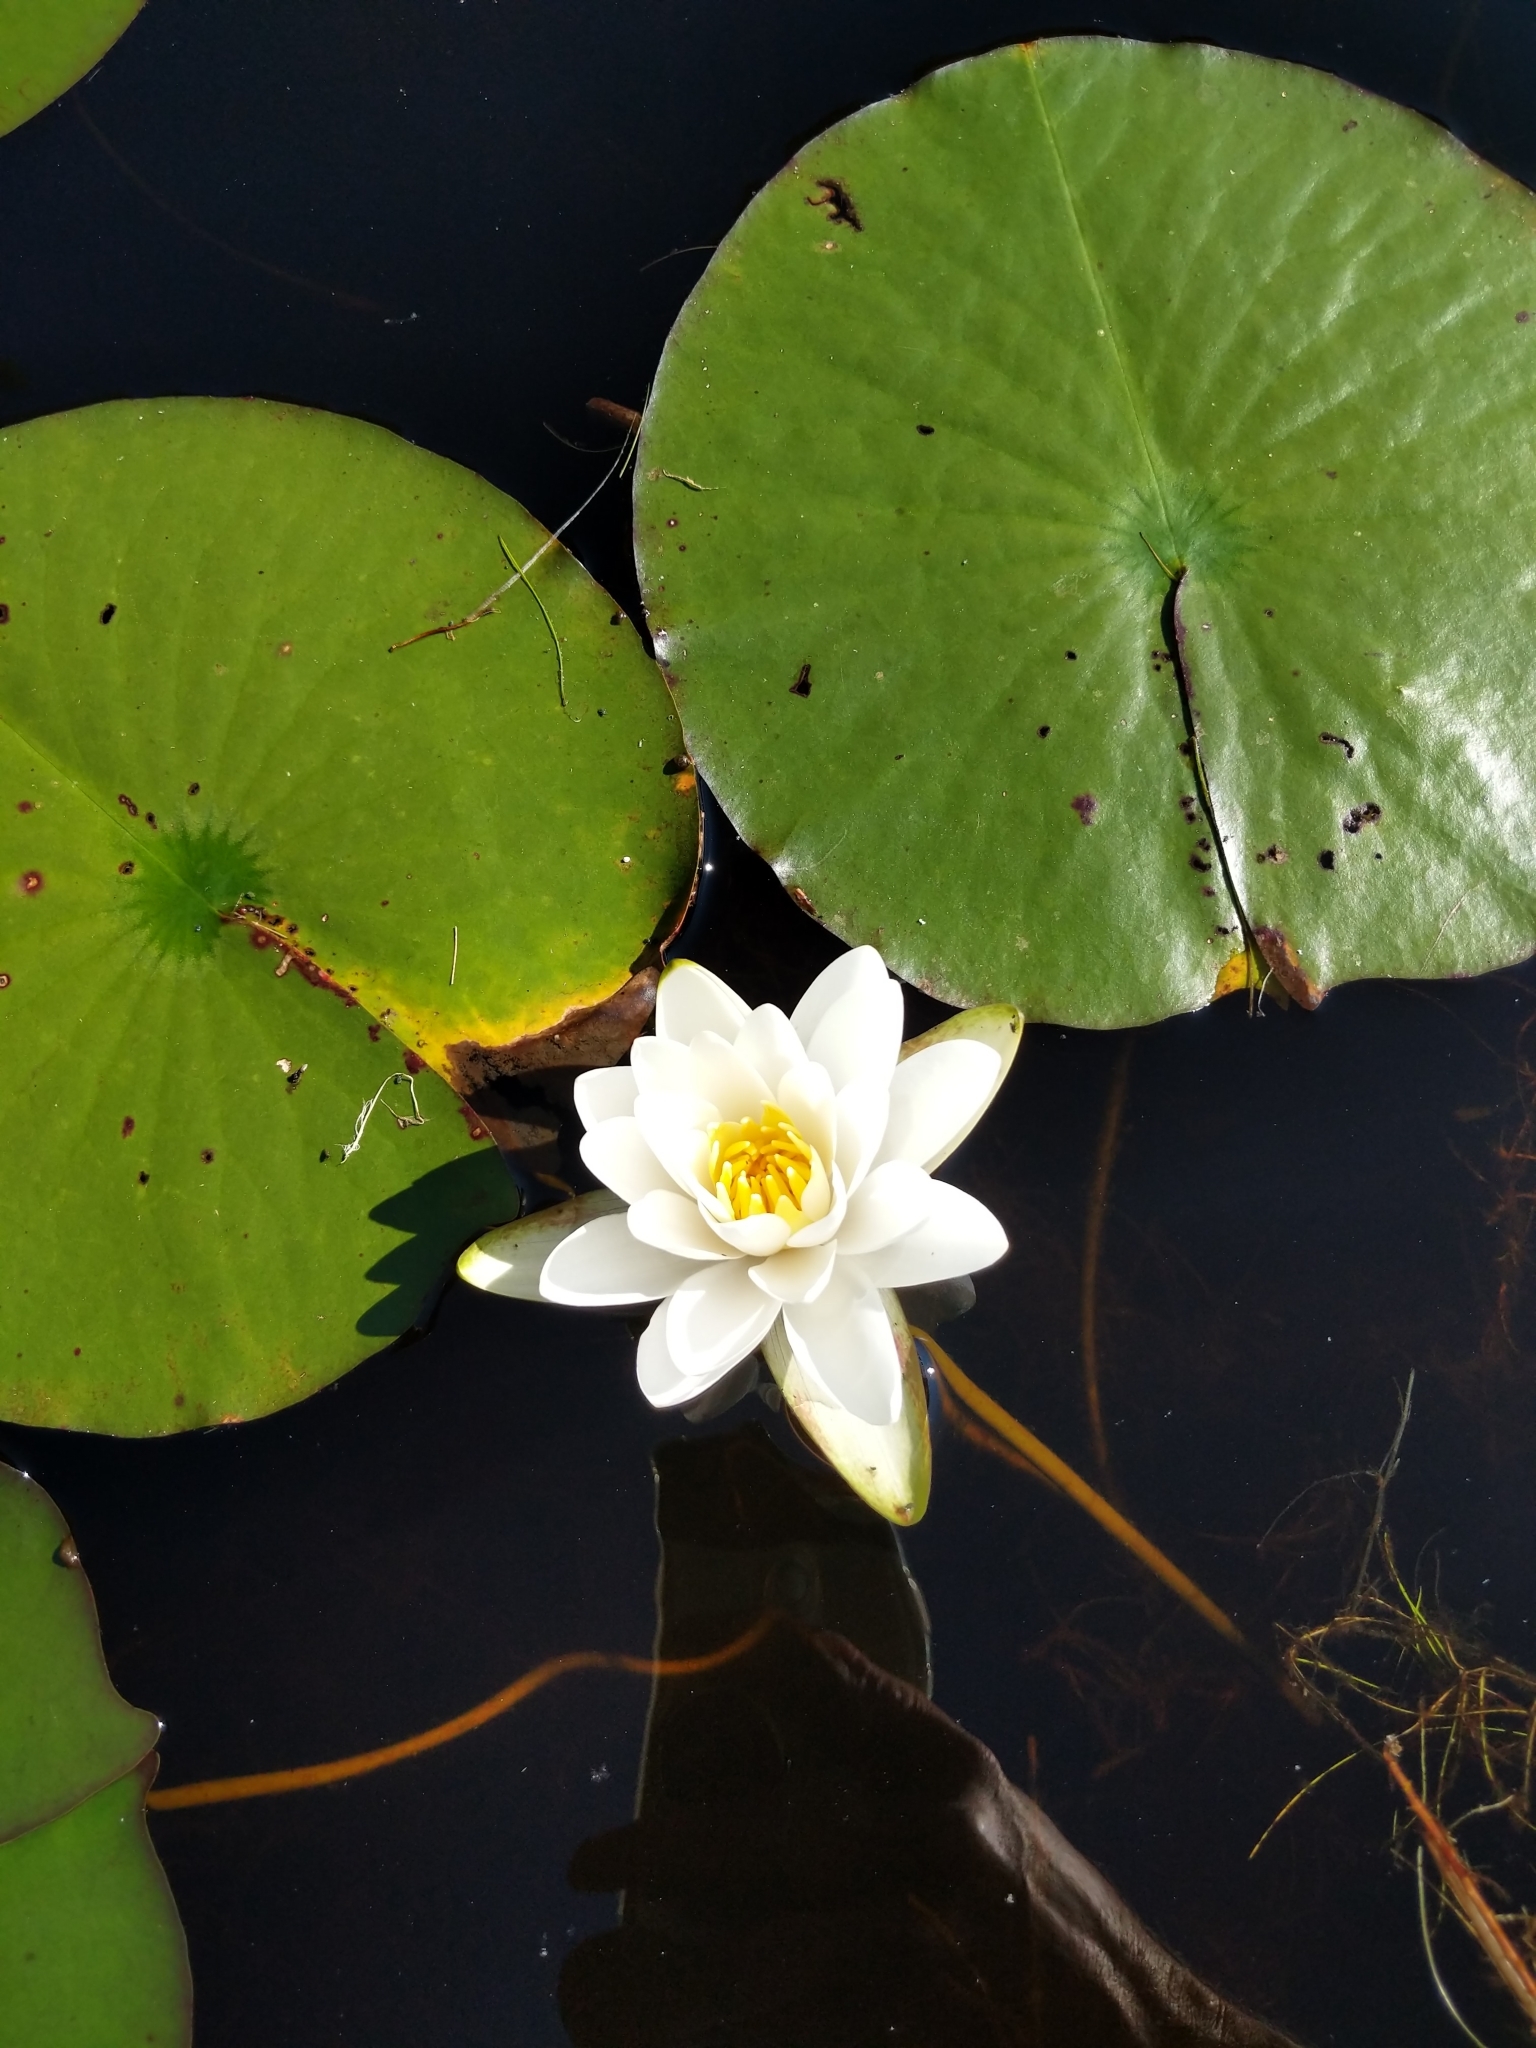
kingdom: Plantae
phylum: Tracheophyta
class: Magnoliopsida
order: Nymphaeales
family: Nymphaeaceae
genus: Nymphaea
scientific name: Nymphaea odorata
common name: Fragrant water-lily
